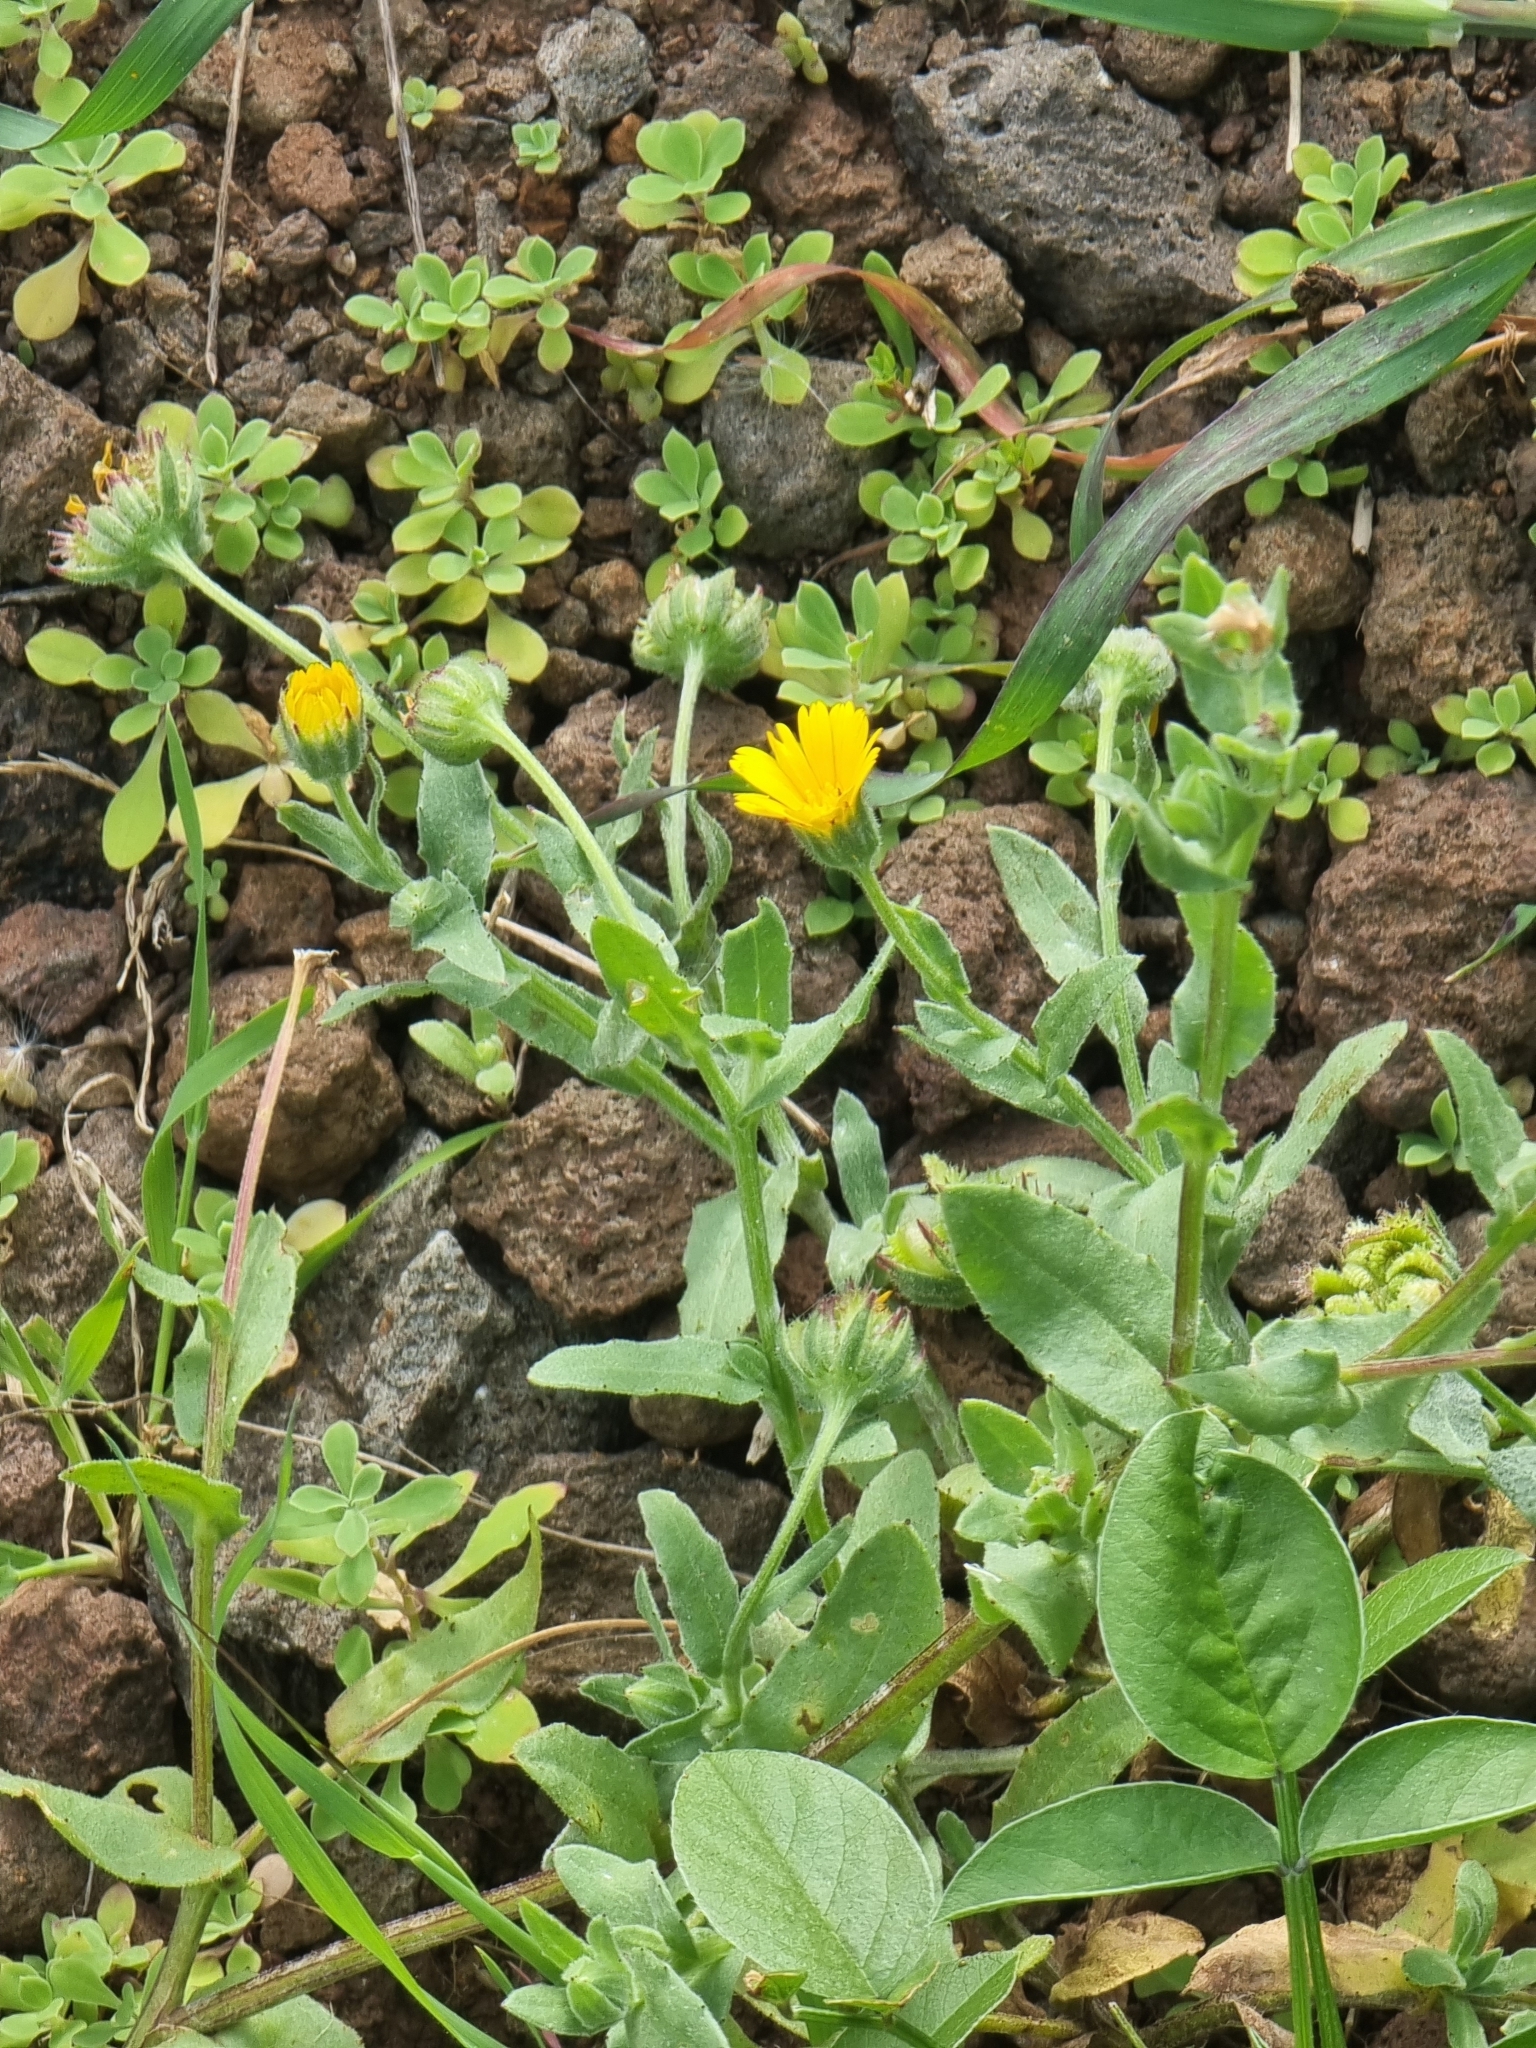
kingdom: Plantae
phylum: Tracheophyta
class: Magnoliopsida
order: Asterales
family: Asteraceae
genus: Calendula
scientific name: Calendula arvensis
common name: Field marigold
